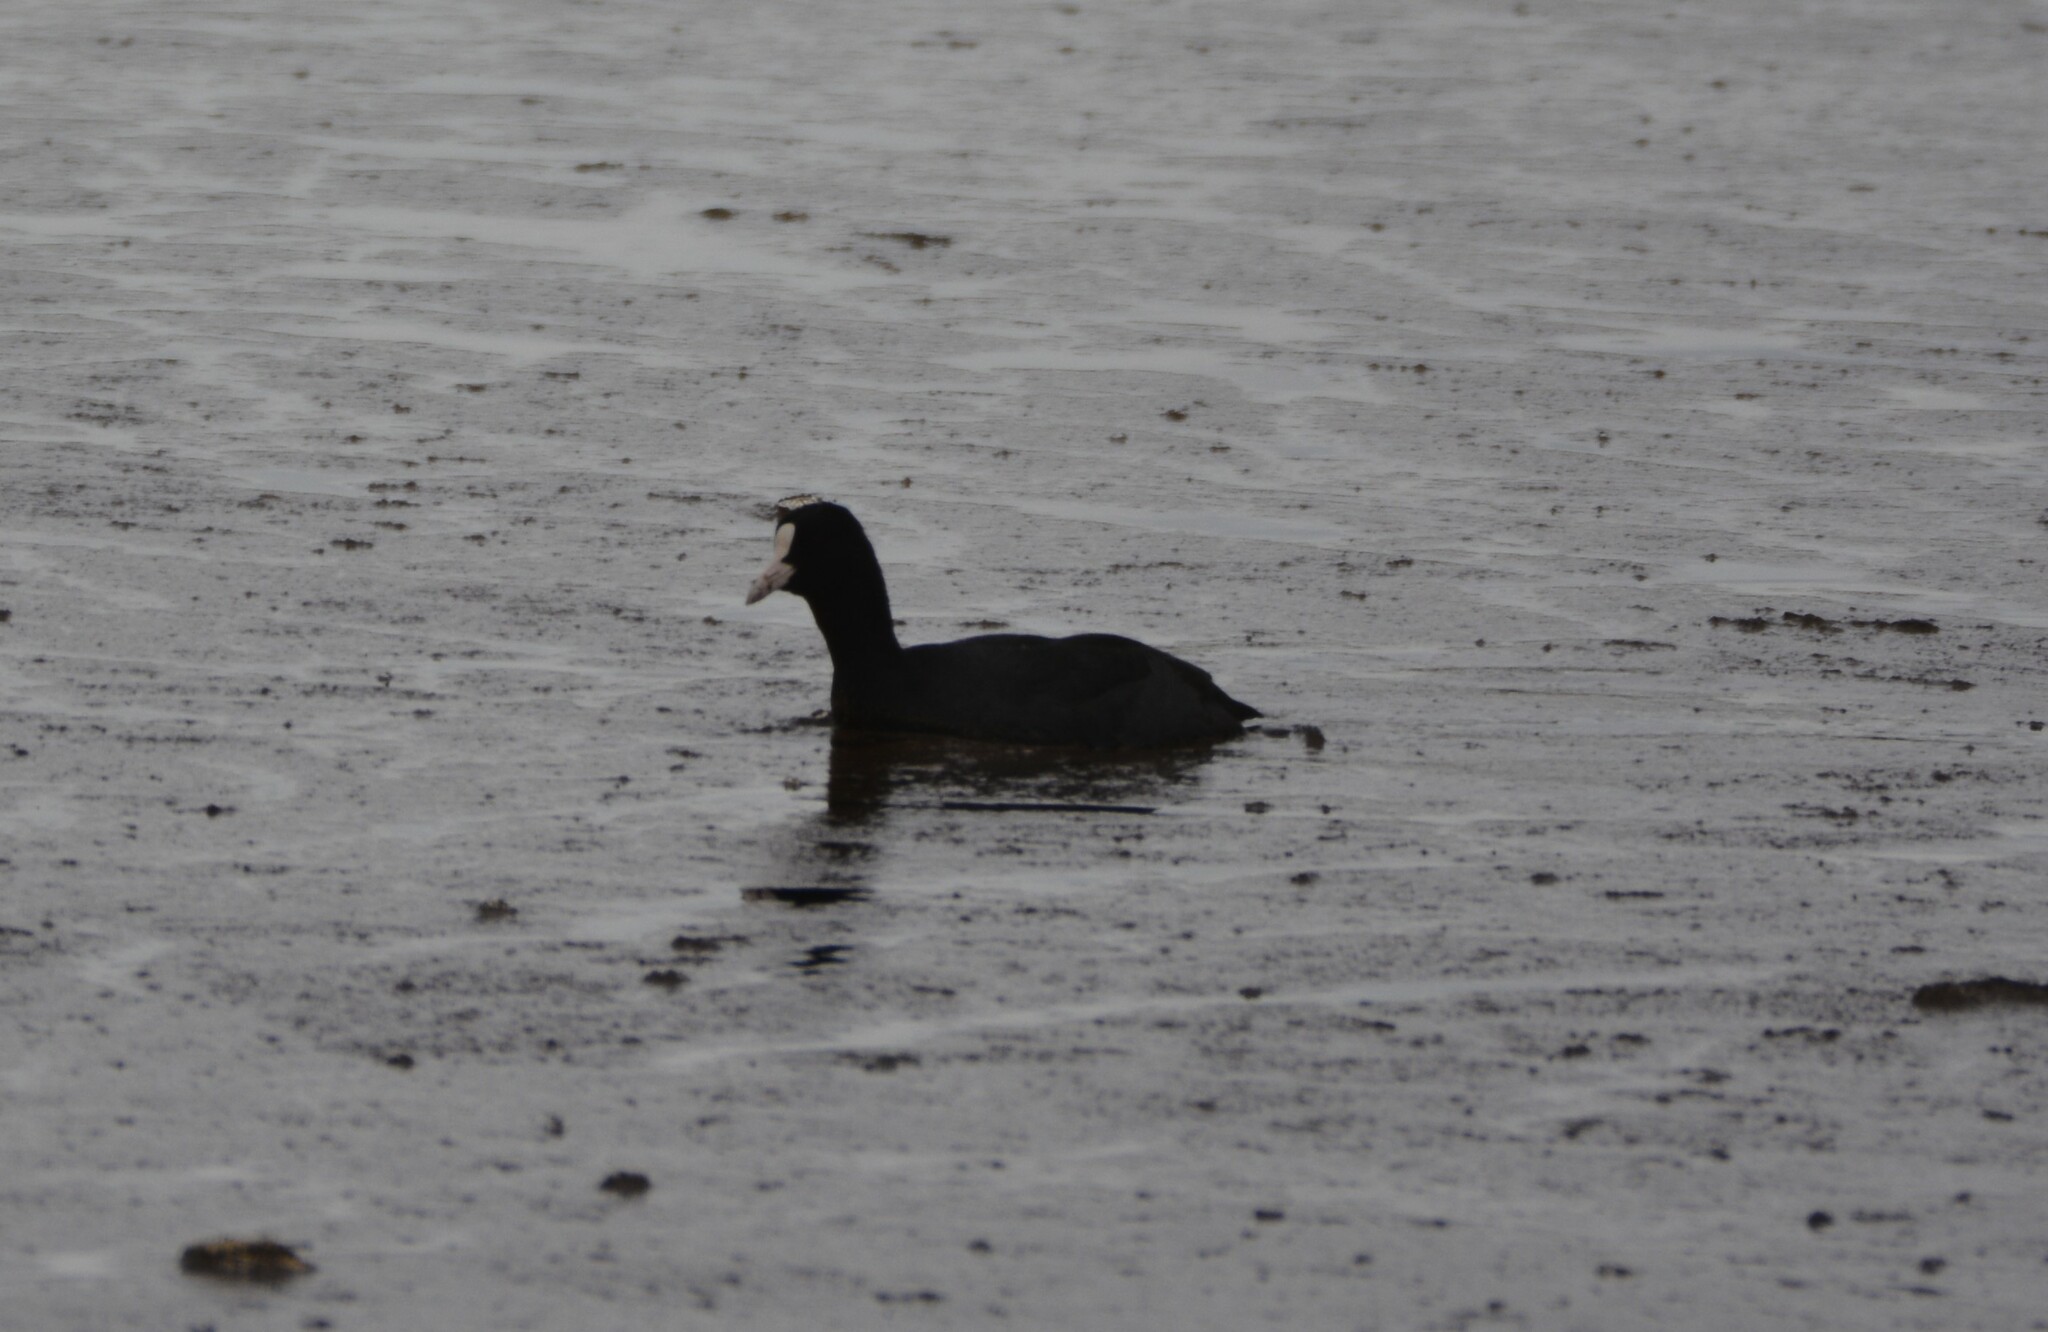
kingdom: Animalia
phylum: Chordata
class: Aves
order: Gruiformes
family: Rallidae
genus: Fulica
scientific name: Fulica atra
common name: Eurasian coot
